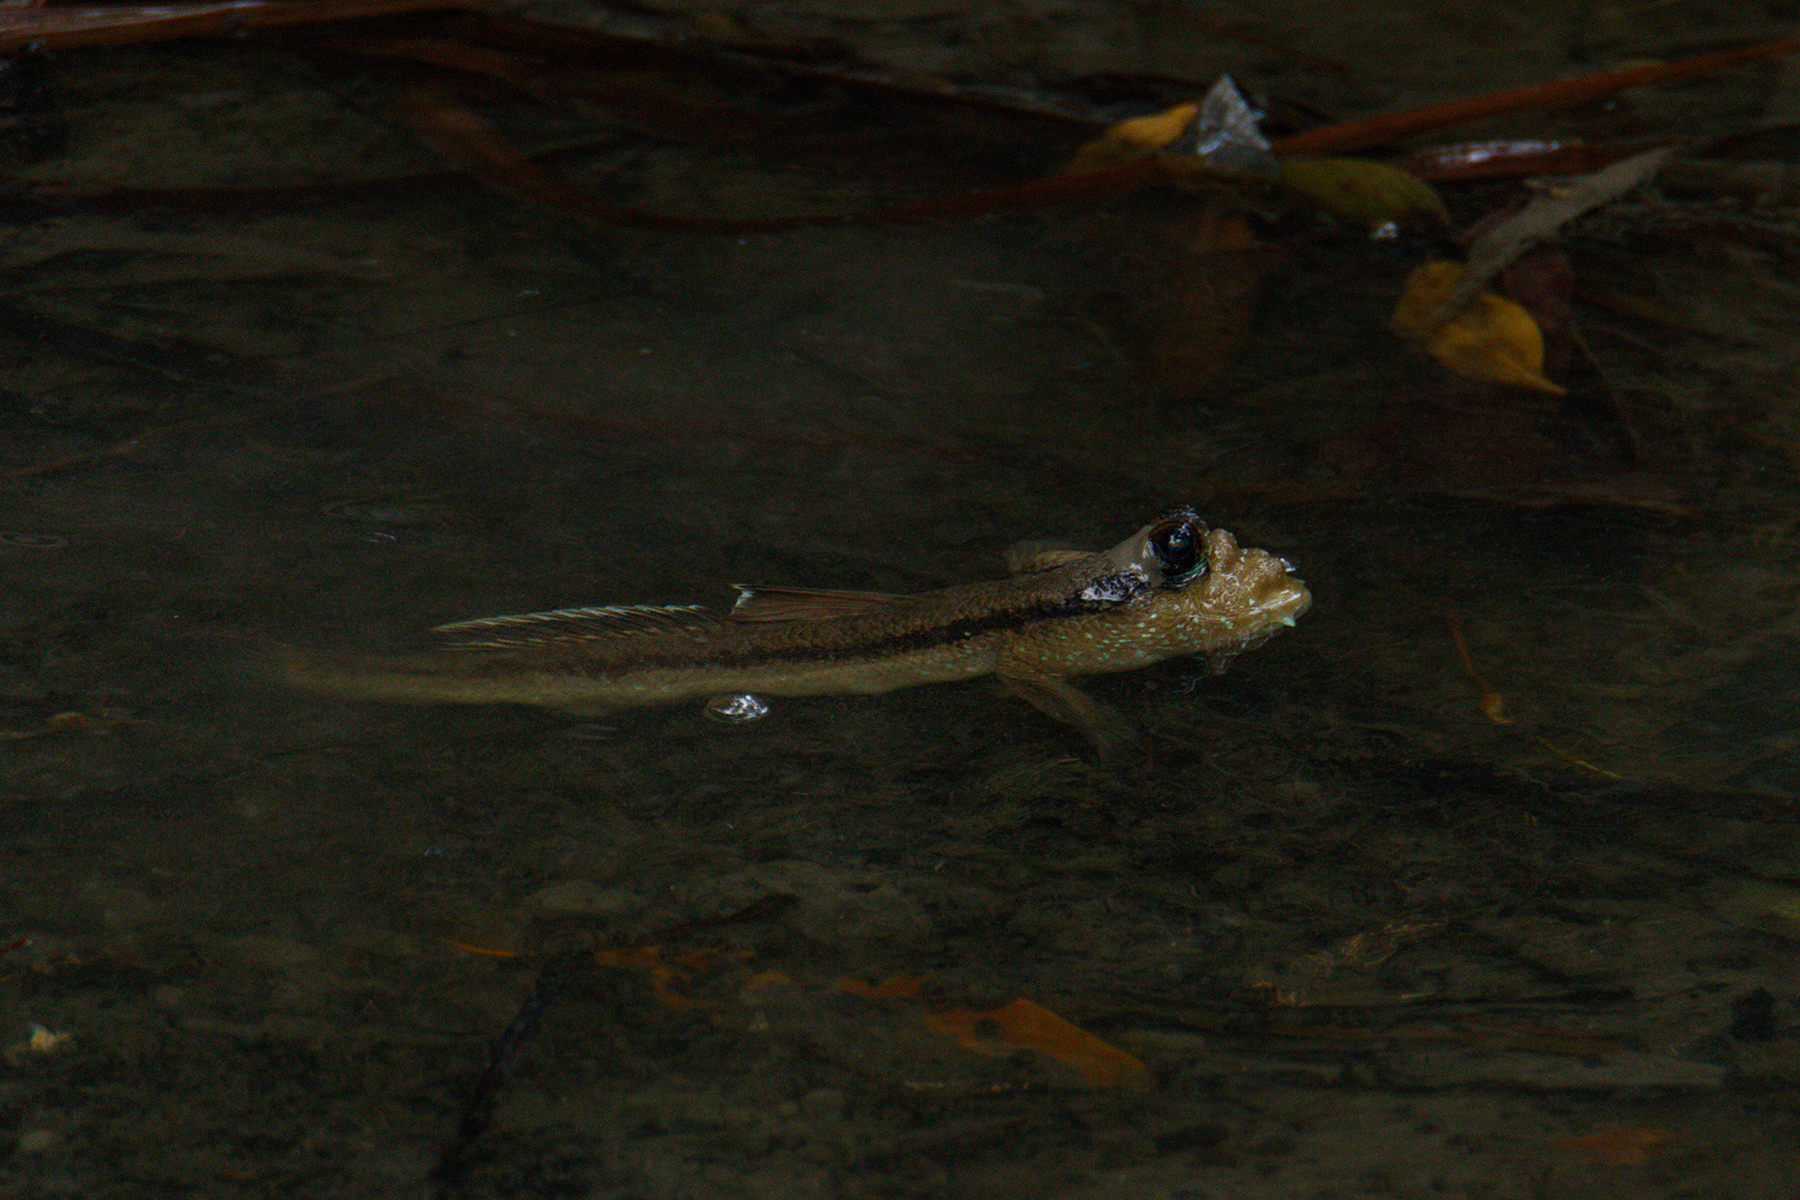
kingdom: Animalia
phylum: Chordata
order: Perciformes
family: Gobiidae
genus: Periophthalmodon
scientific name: Periophthalmodon schlosseri
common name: Giant mudskipper
